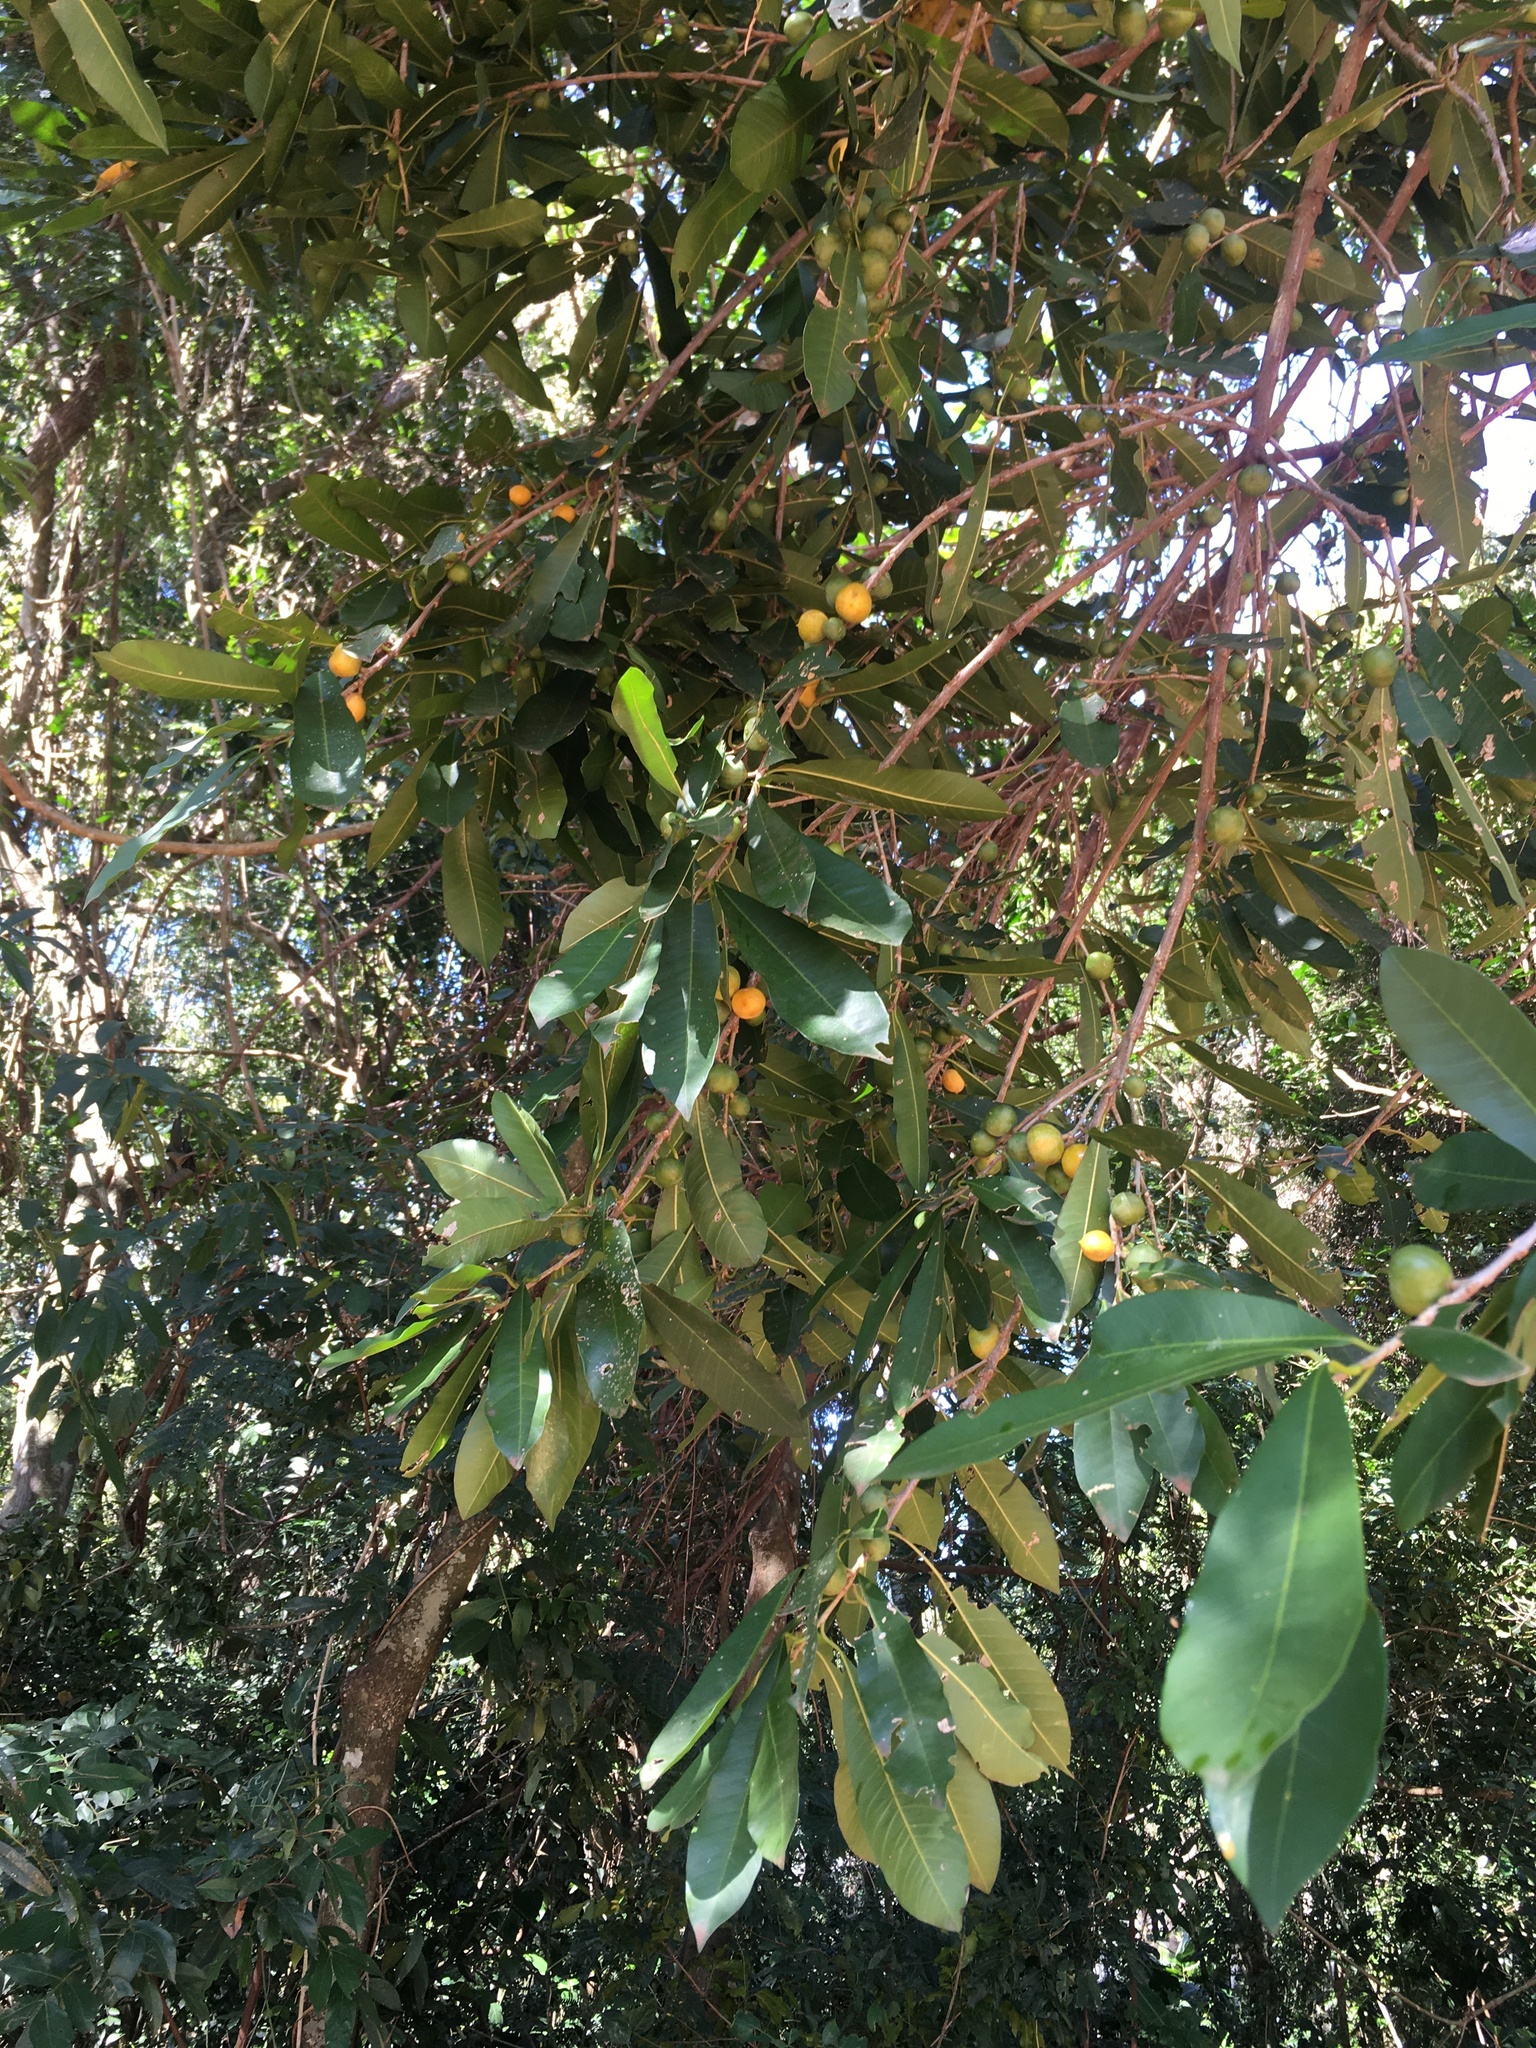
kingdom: Plantae
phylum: Tracheophyta
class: Magnoliopsida
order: Ericales
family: Sapotaceae
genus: Chrysophyllum
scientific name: Chrysophyllum gonocarpum
